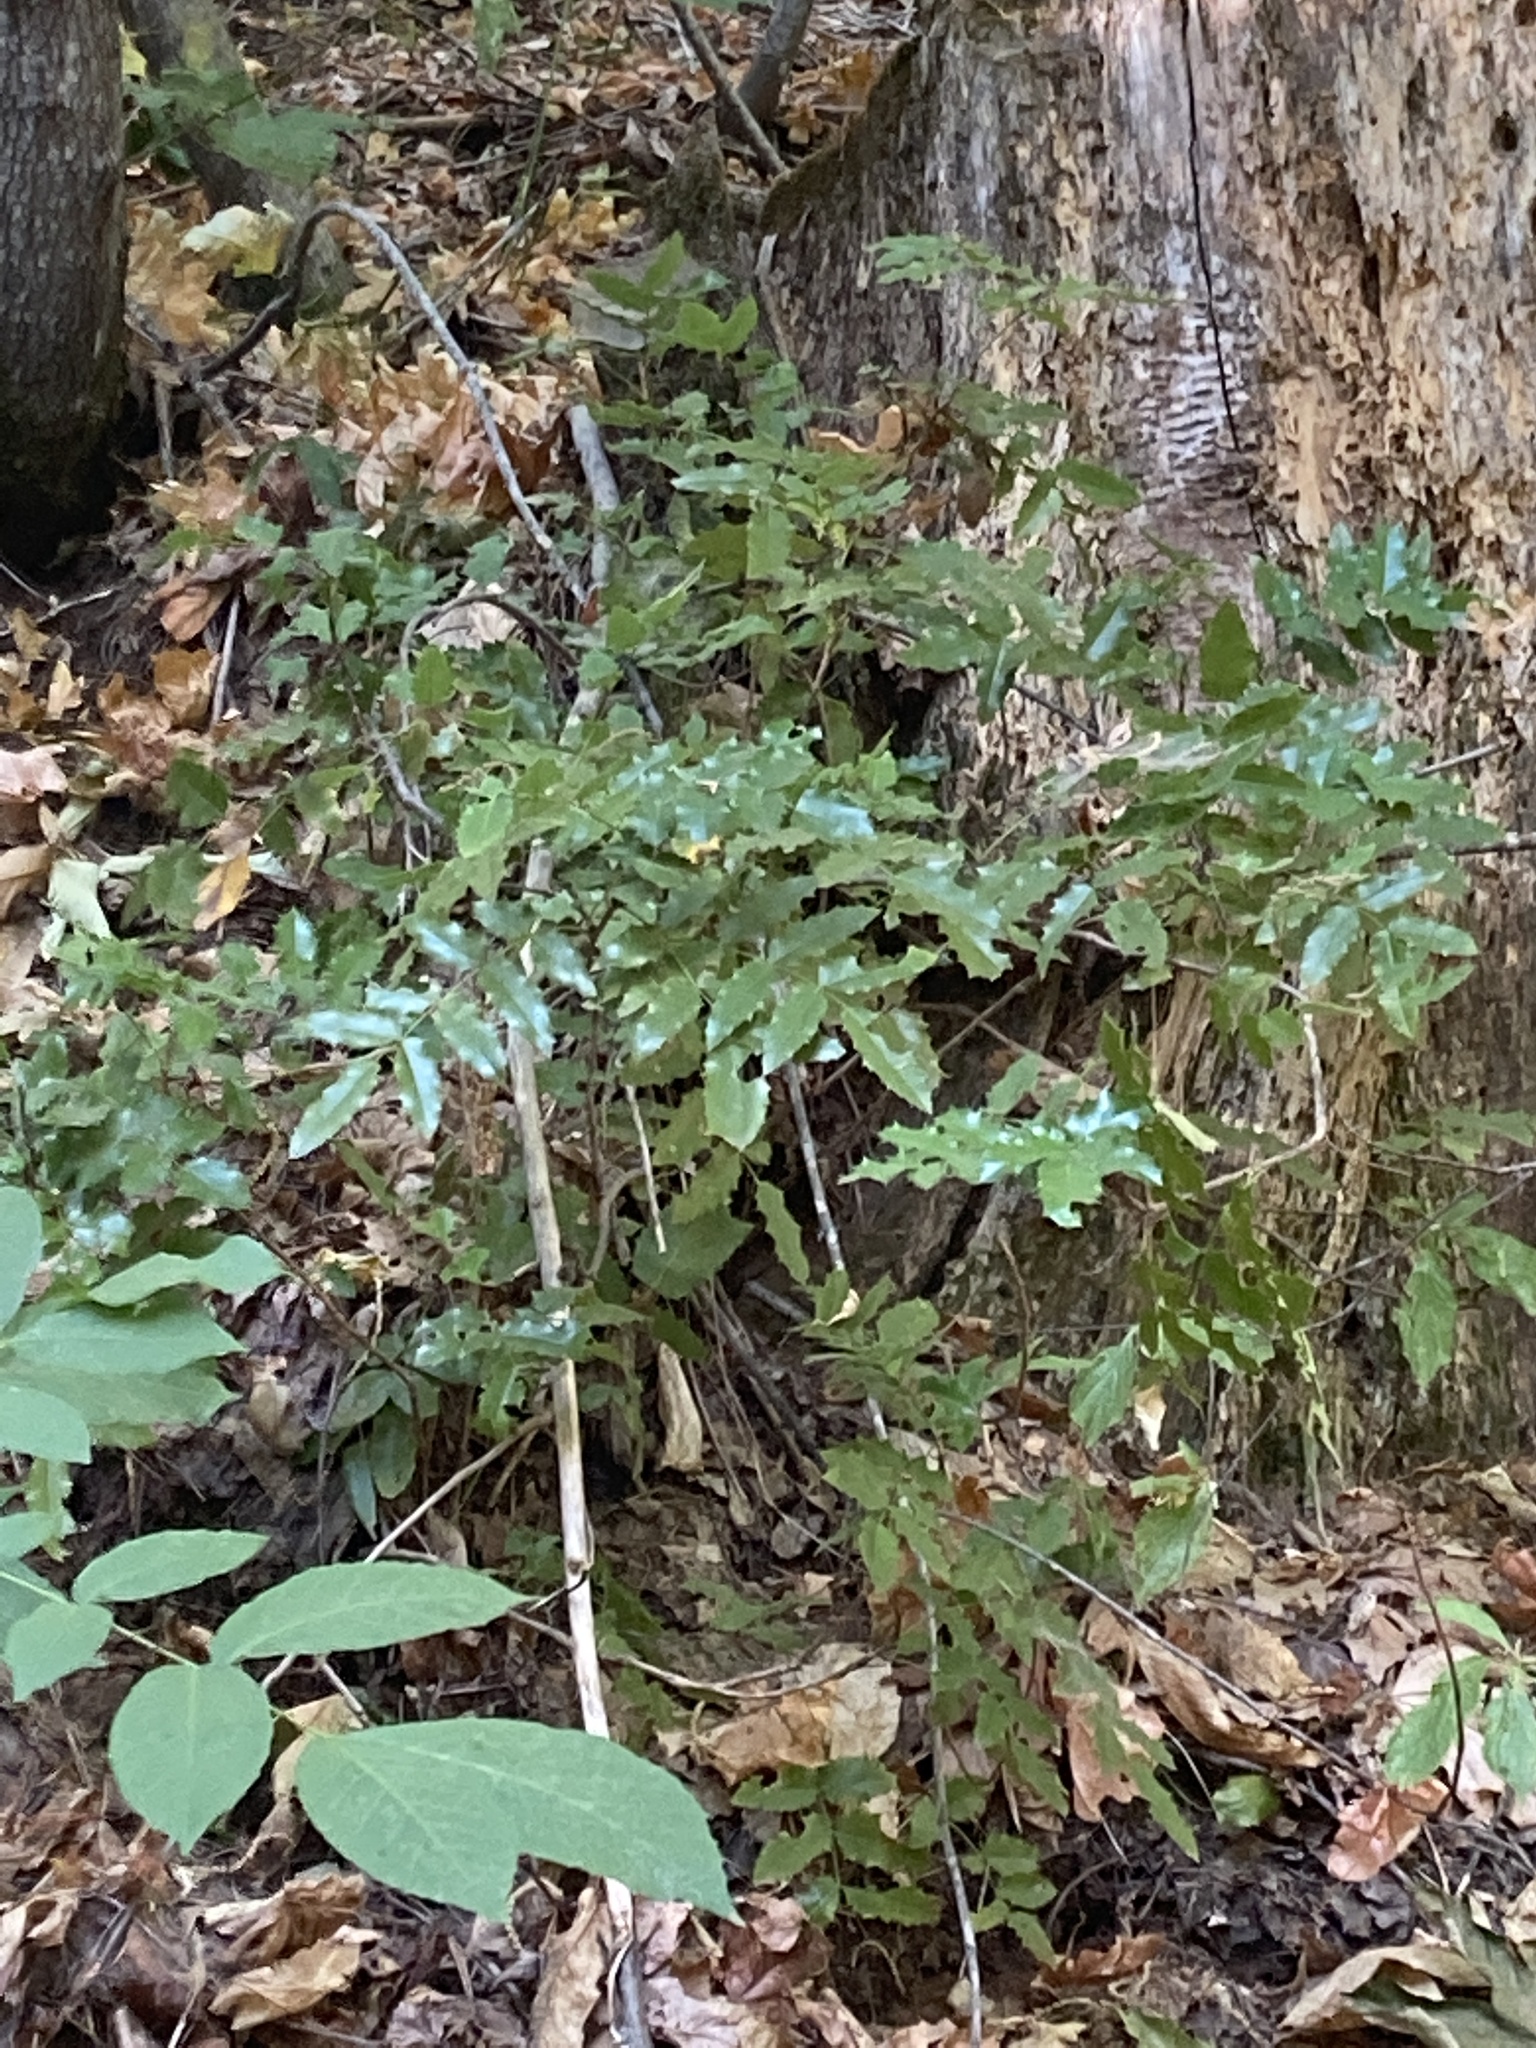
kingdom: Plantae
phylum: Tracheophyta
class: Magnoliopsida
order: Ranunculales
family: Berberidaceae
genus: Mahonia
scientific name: Mahonia aquifolium
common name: Oregon-grape
